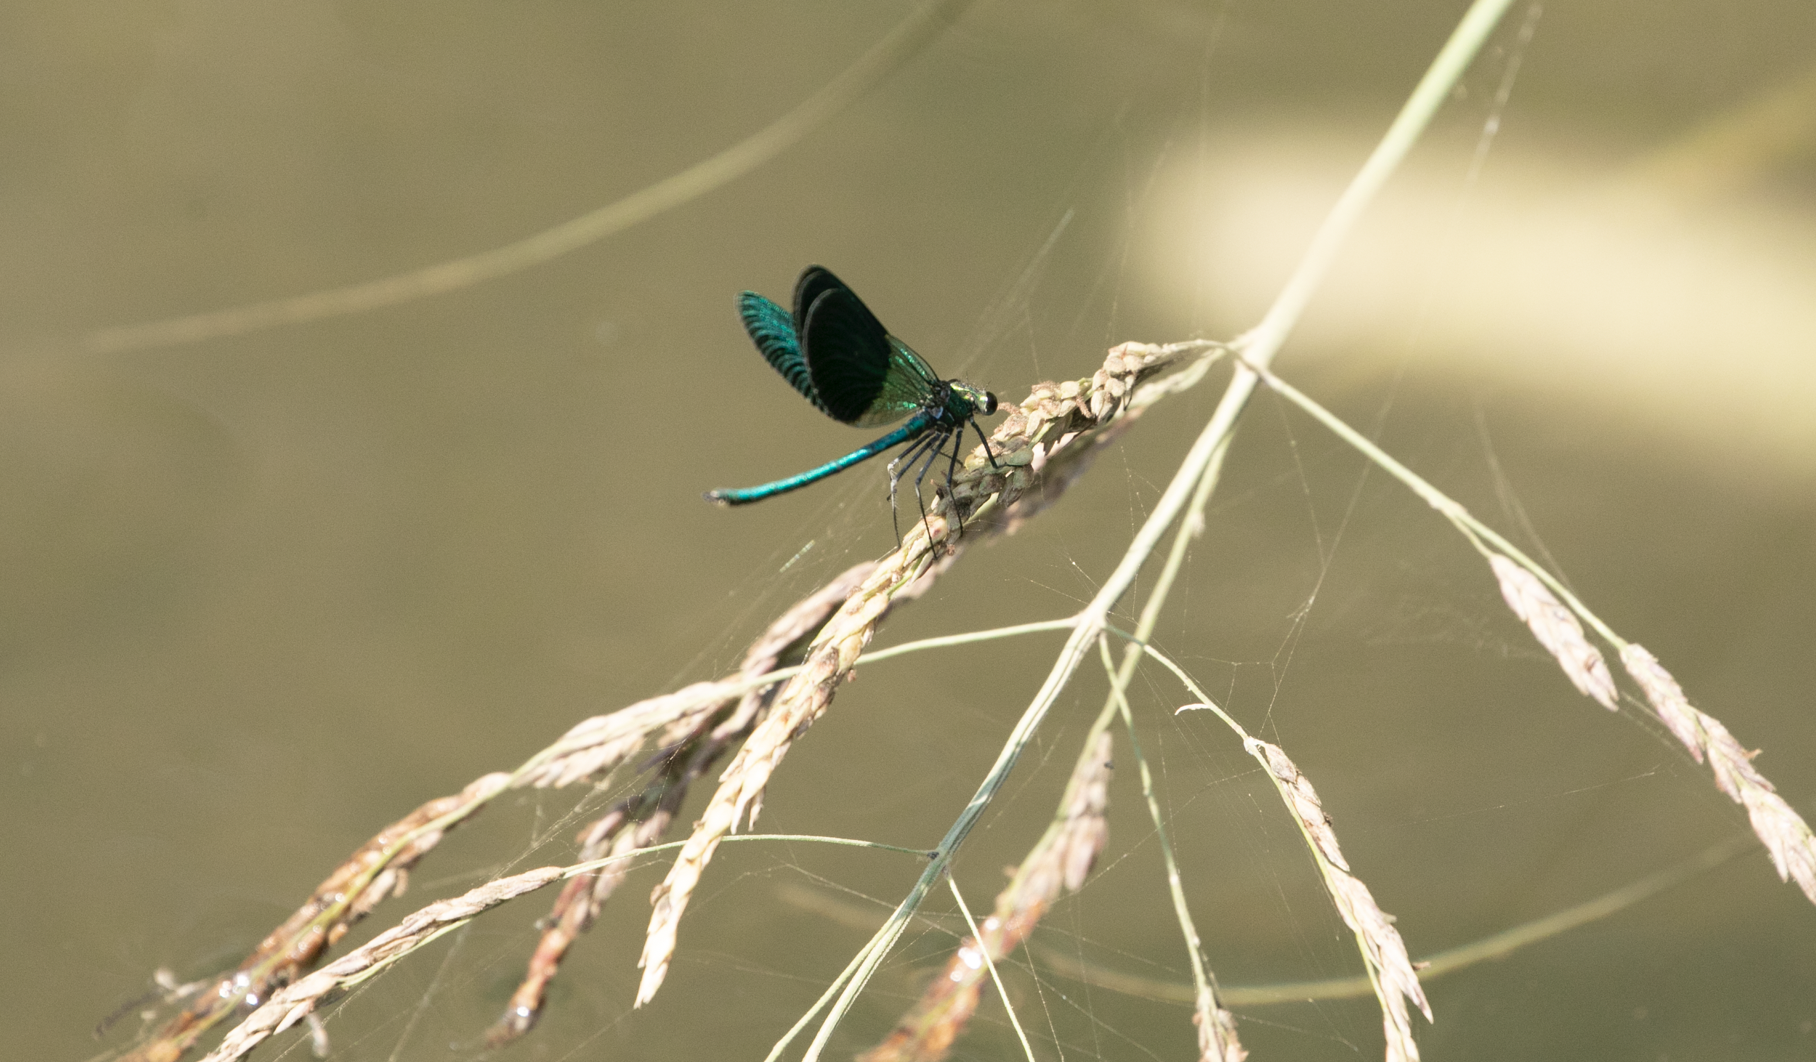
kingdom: Animalia
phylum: Arthropoda
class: Insecta
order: Odonata
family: Calopterygidae
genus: Calopteryx
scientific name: Calopteryx splendens
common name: Banded demoiselle
